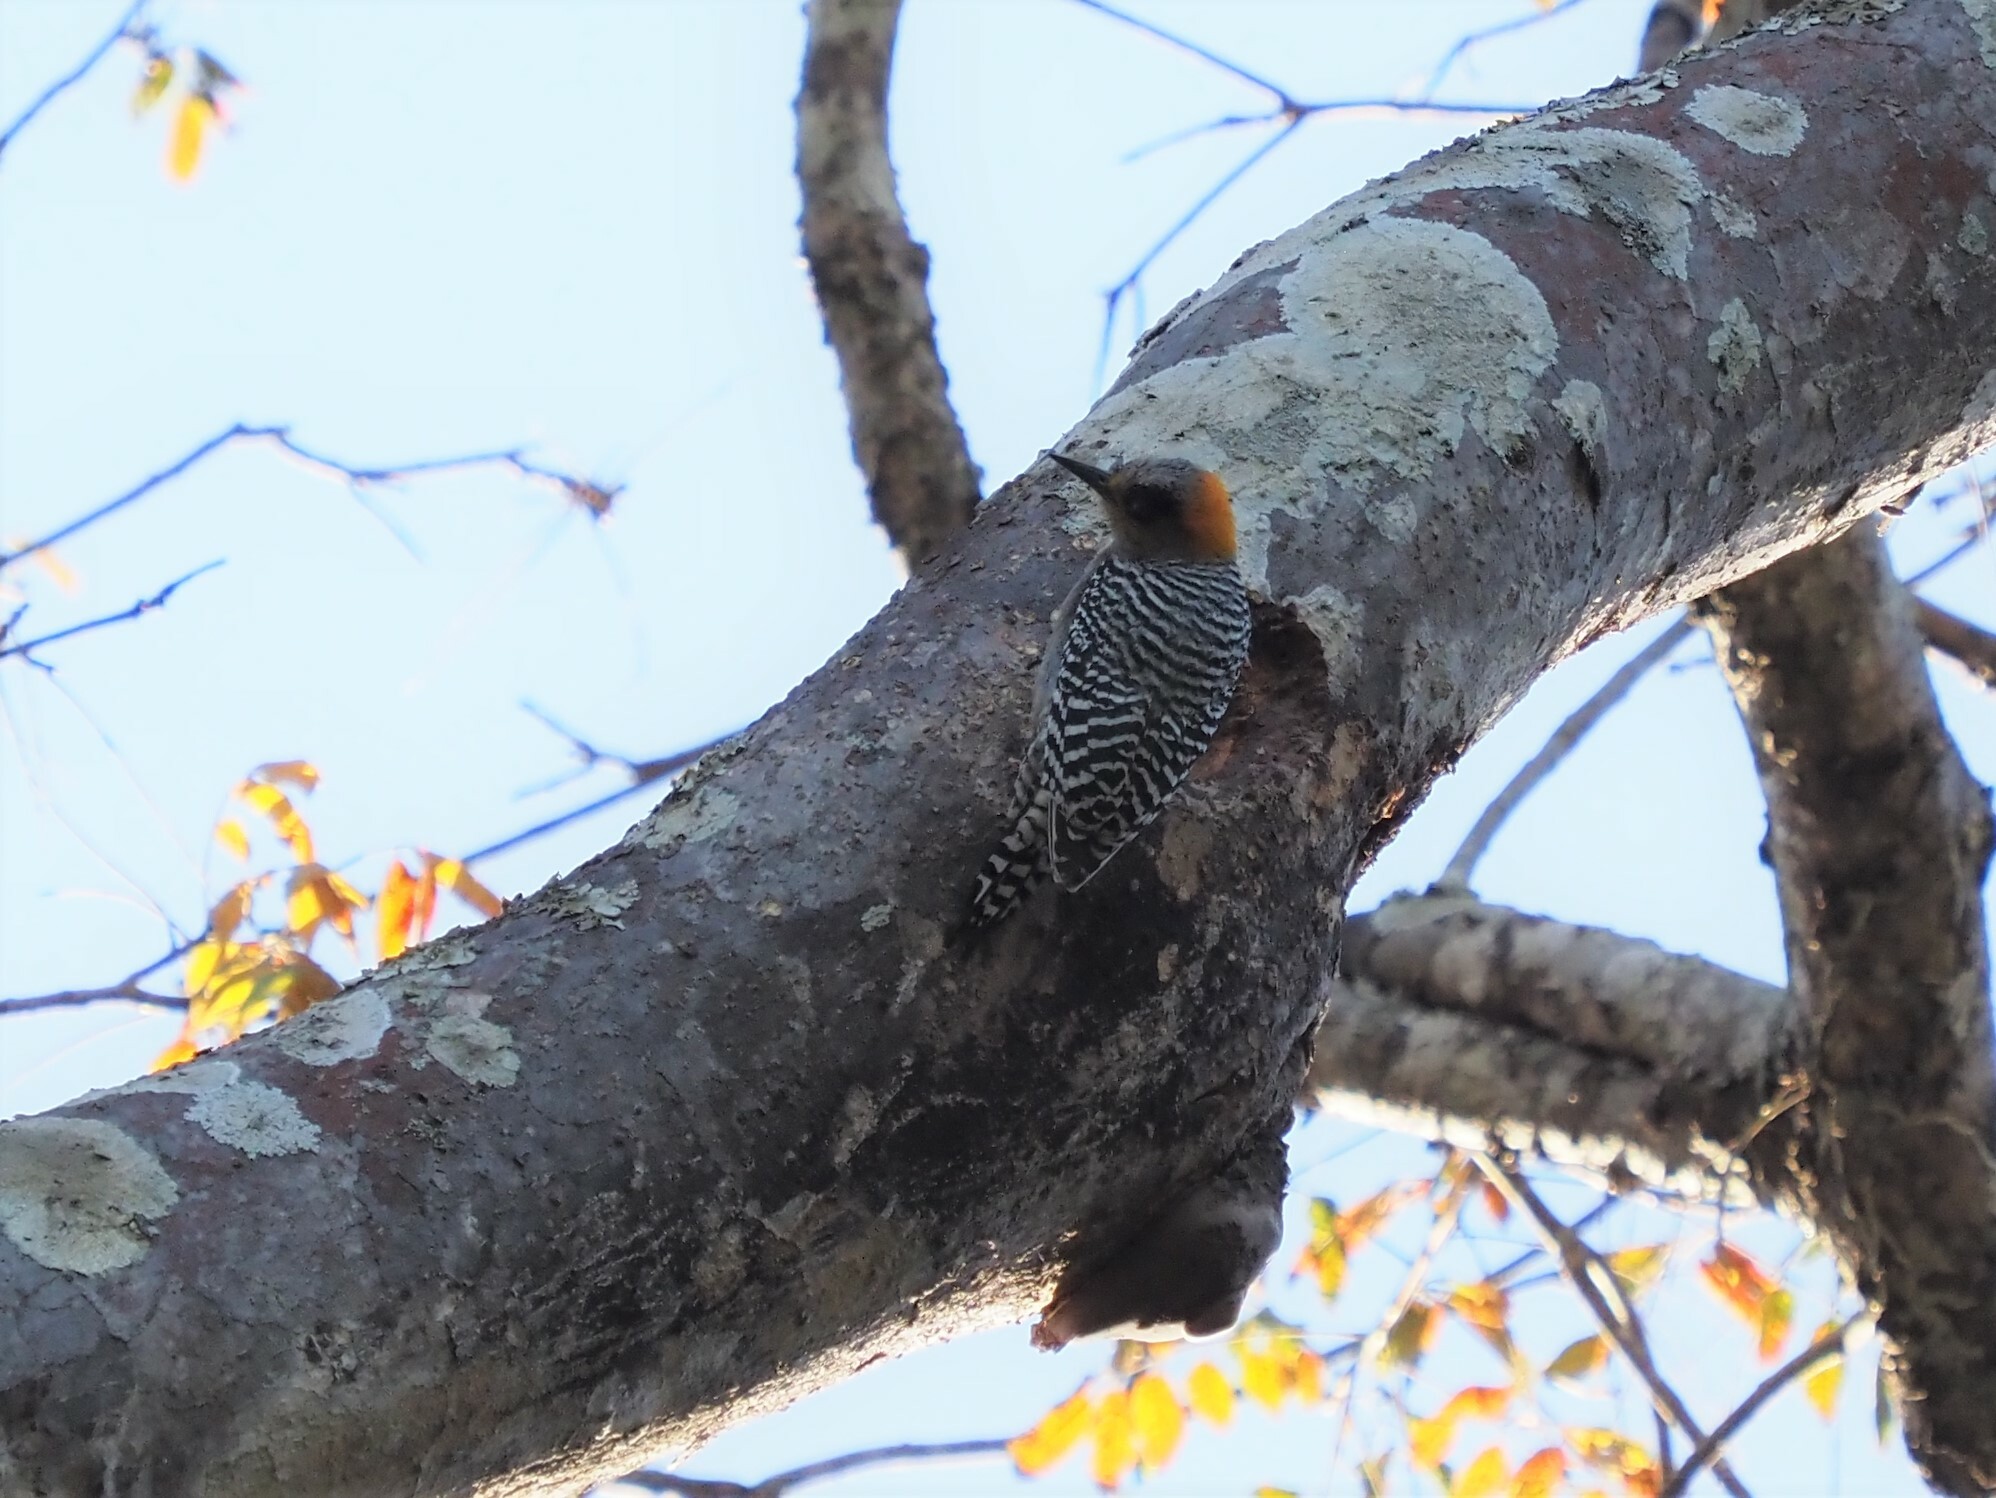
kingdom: Animalia
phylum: Chordata
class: Aves
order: Piciformes
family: Picidae
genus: Melanerpes
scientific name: Melanerpes chrysogenys
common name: Golden-cheeked woodpecker
